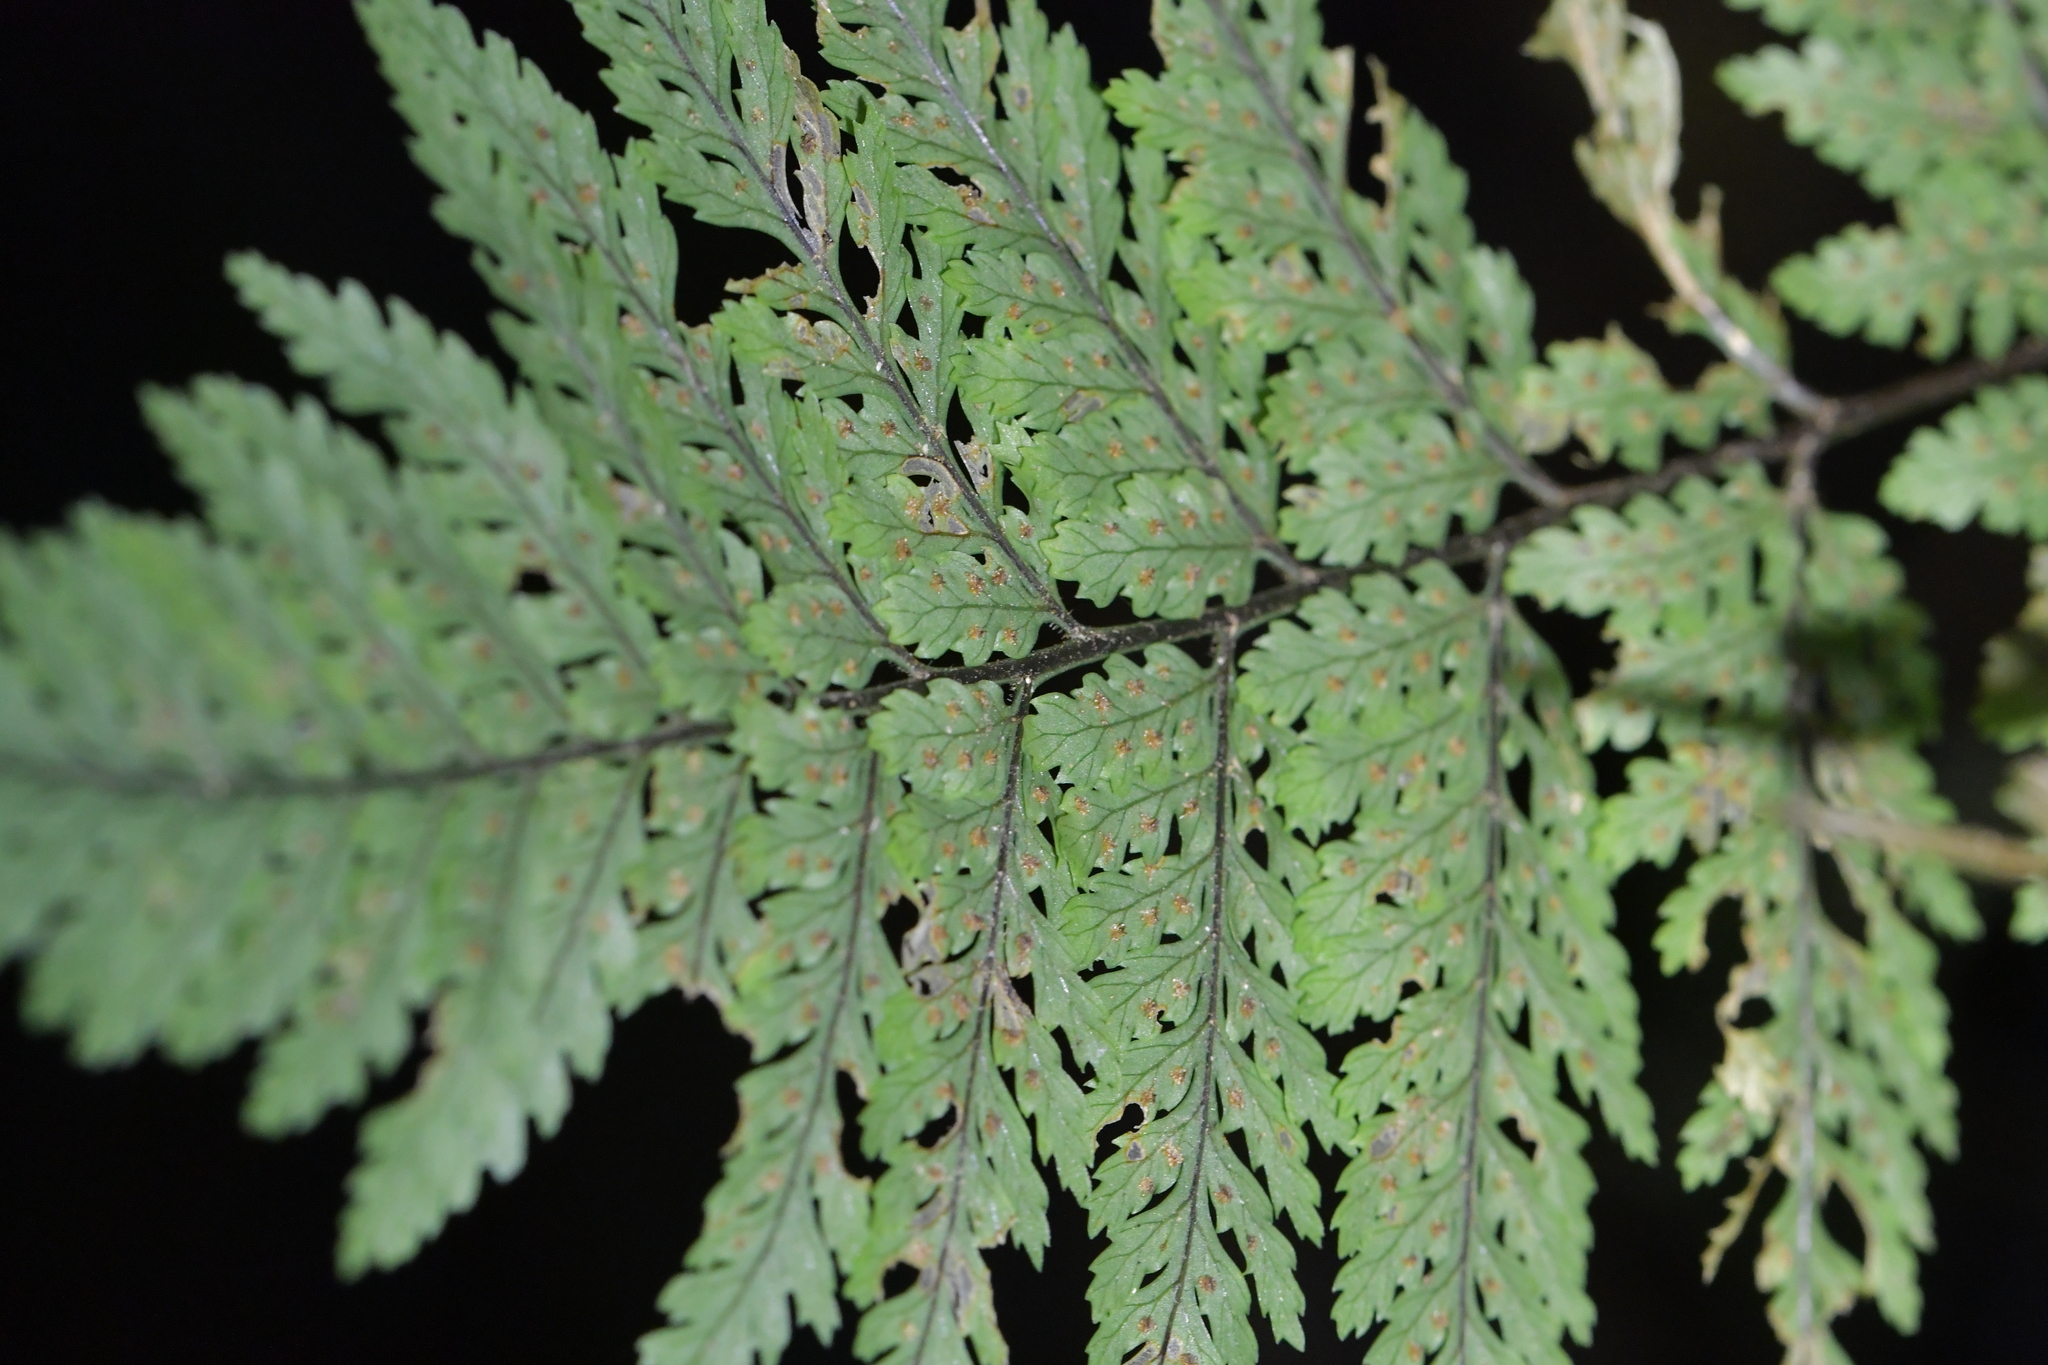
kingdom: Plantae
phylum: Tracheophyta
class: Polypodiopsida
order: Polypodiales
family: Dryopteridaceae
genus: Parapolystichum
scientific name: Parapolystichum glabellum
